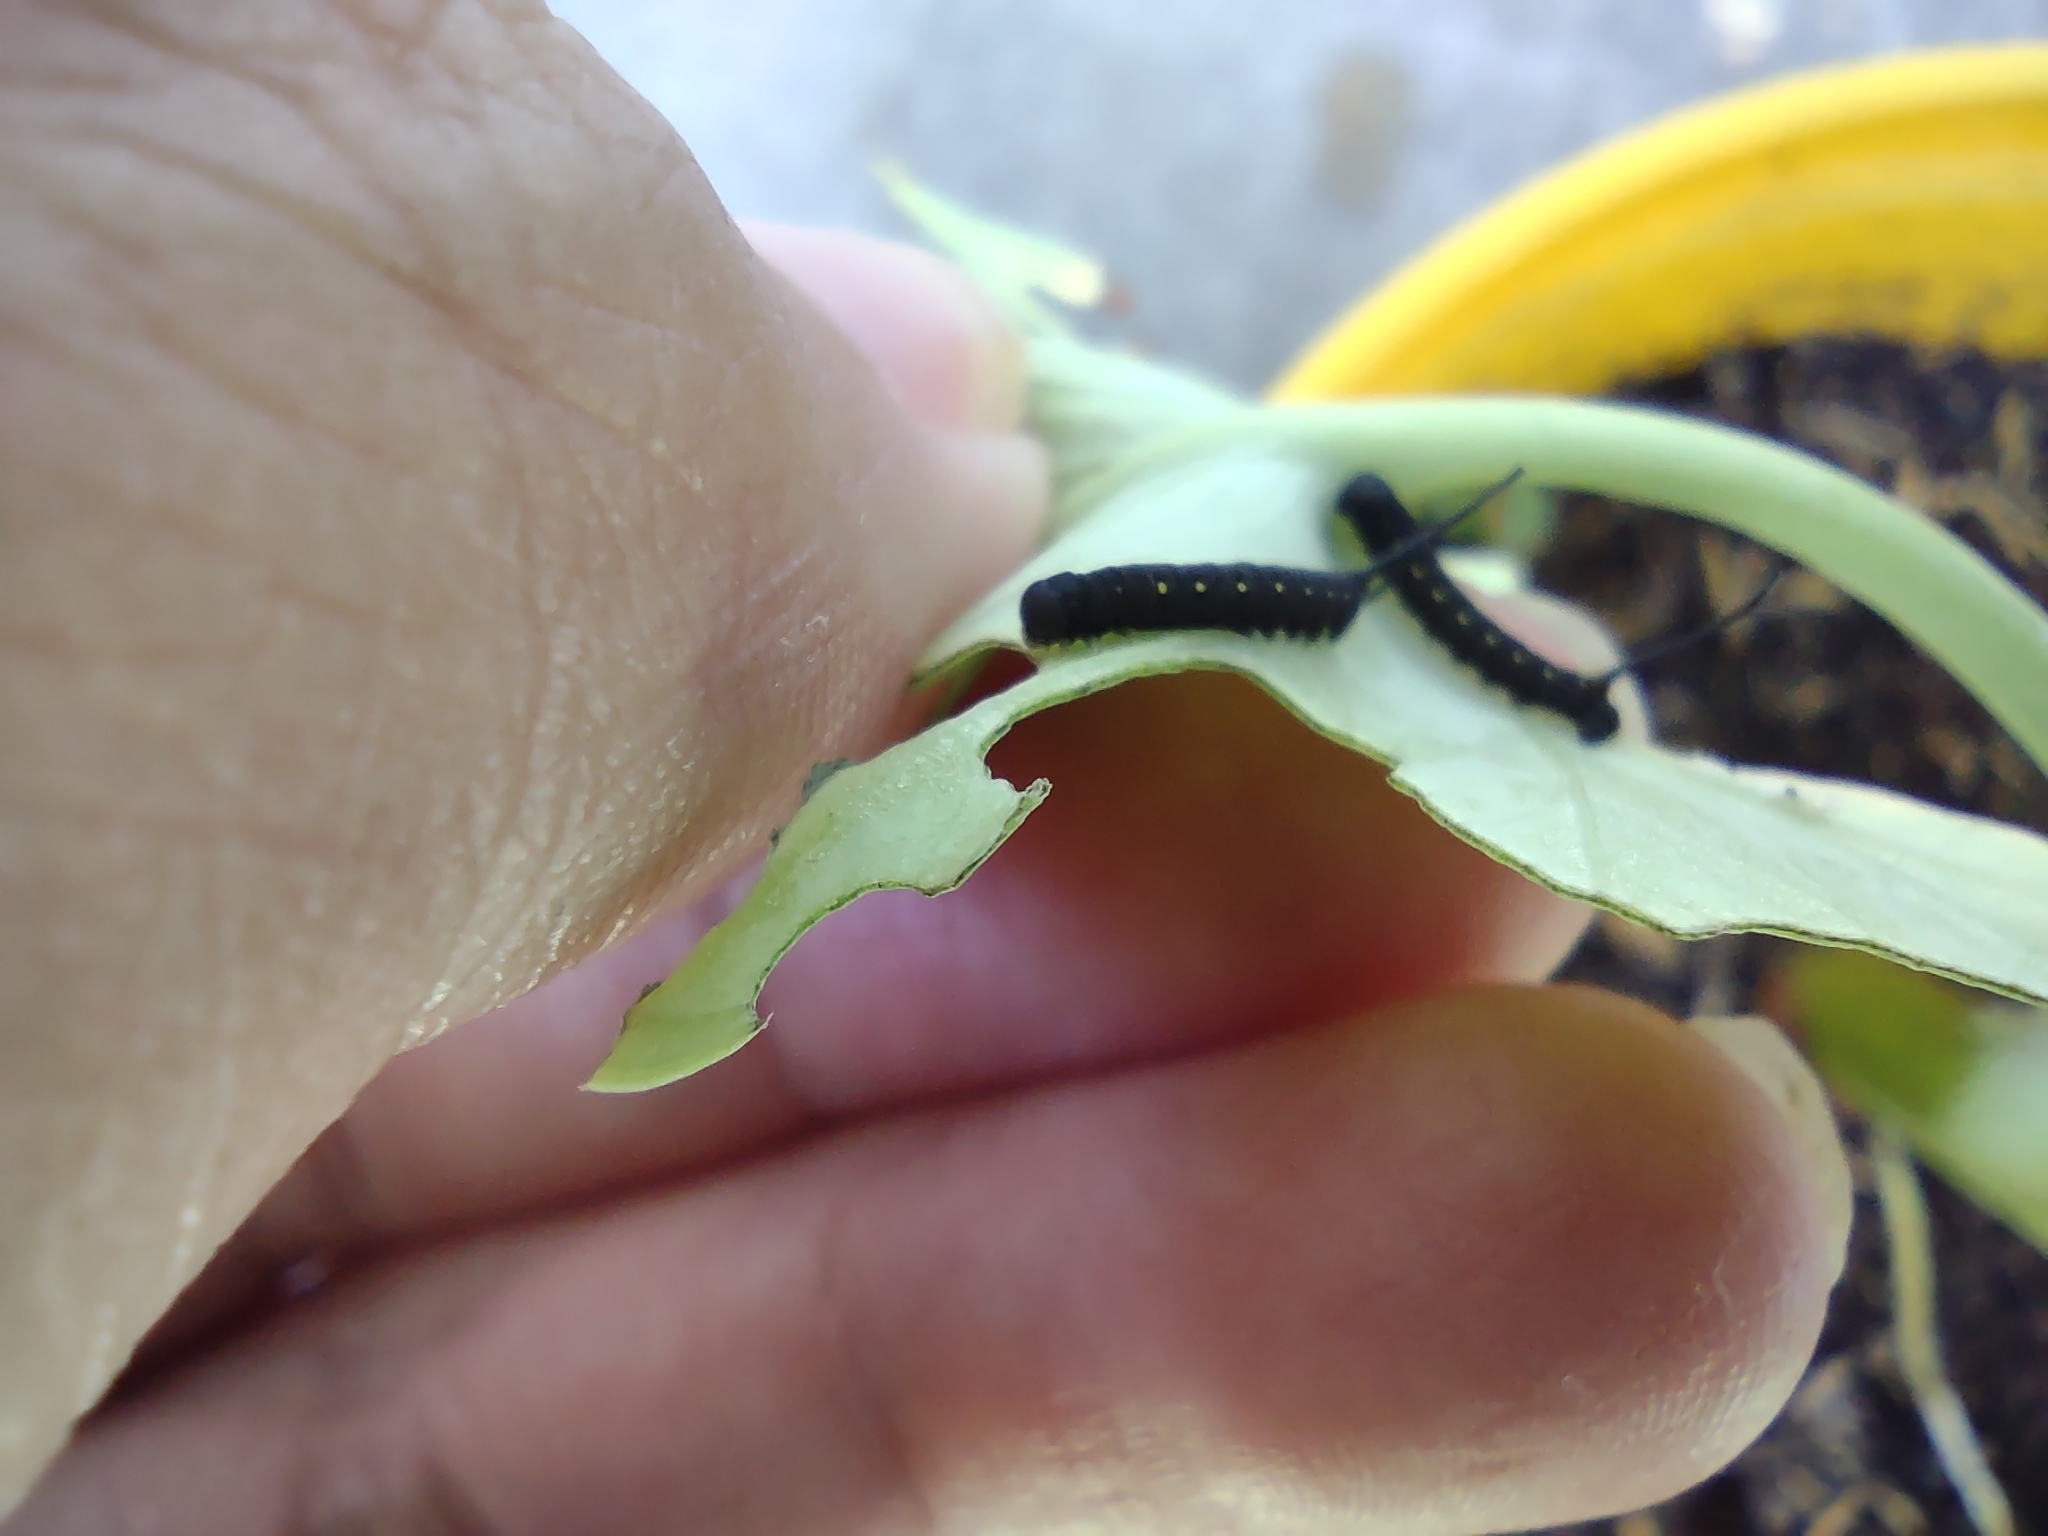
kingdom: Animalia
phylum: Arthropoda
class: Insecta
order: Lepidoptera
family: Sphingidae
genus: Theretra
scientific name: Theretra oldenlandiae
